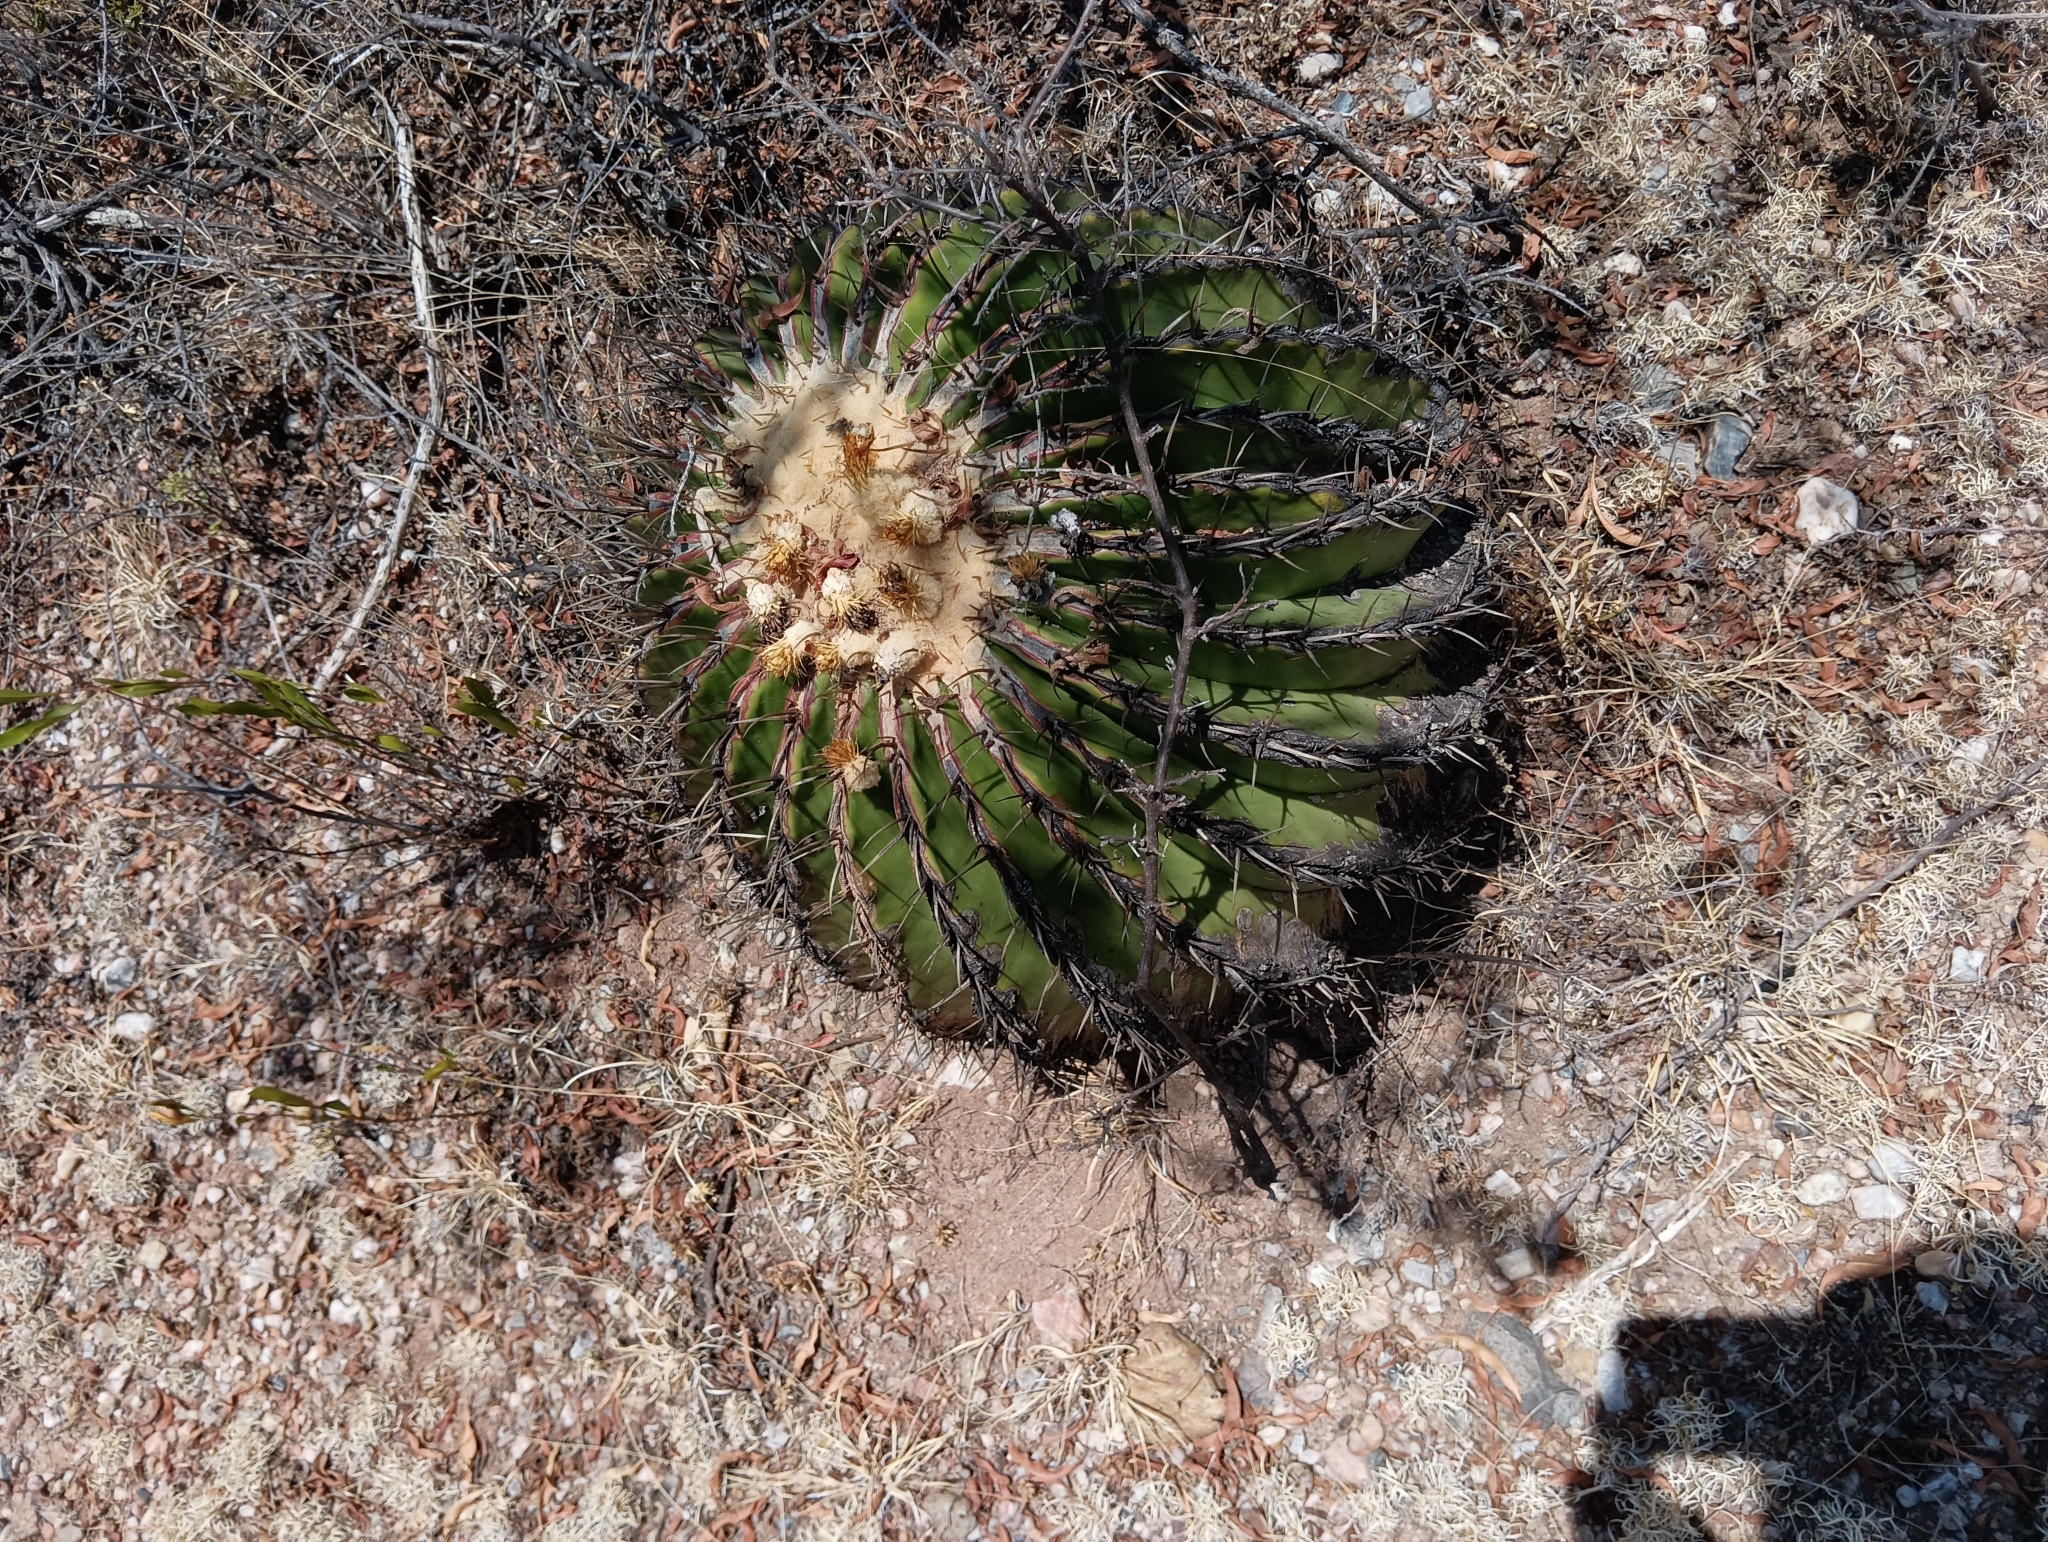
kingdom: Plantae
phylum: Tracheophyta
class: Magnoliopsida
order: Caryophyllales
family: Cactaceae
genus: Echinocactus
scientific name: Echinocactus platyacanthus
